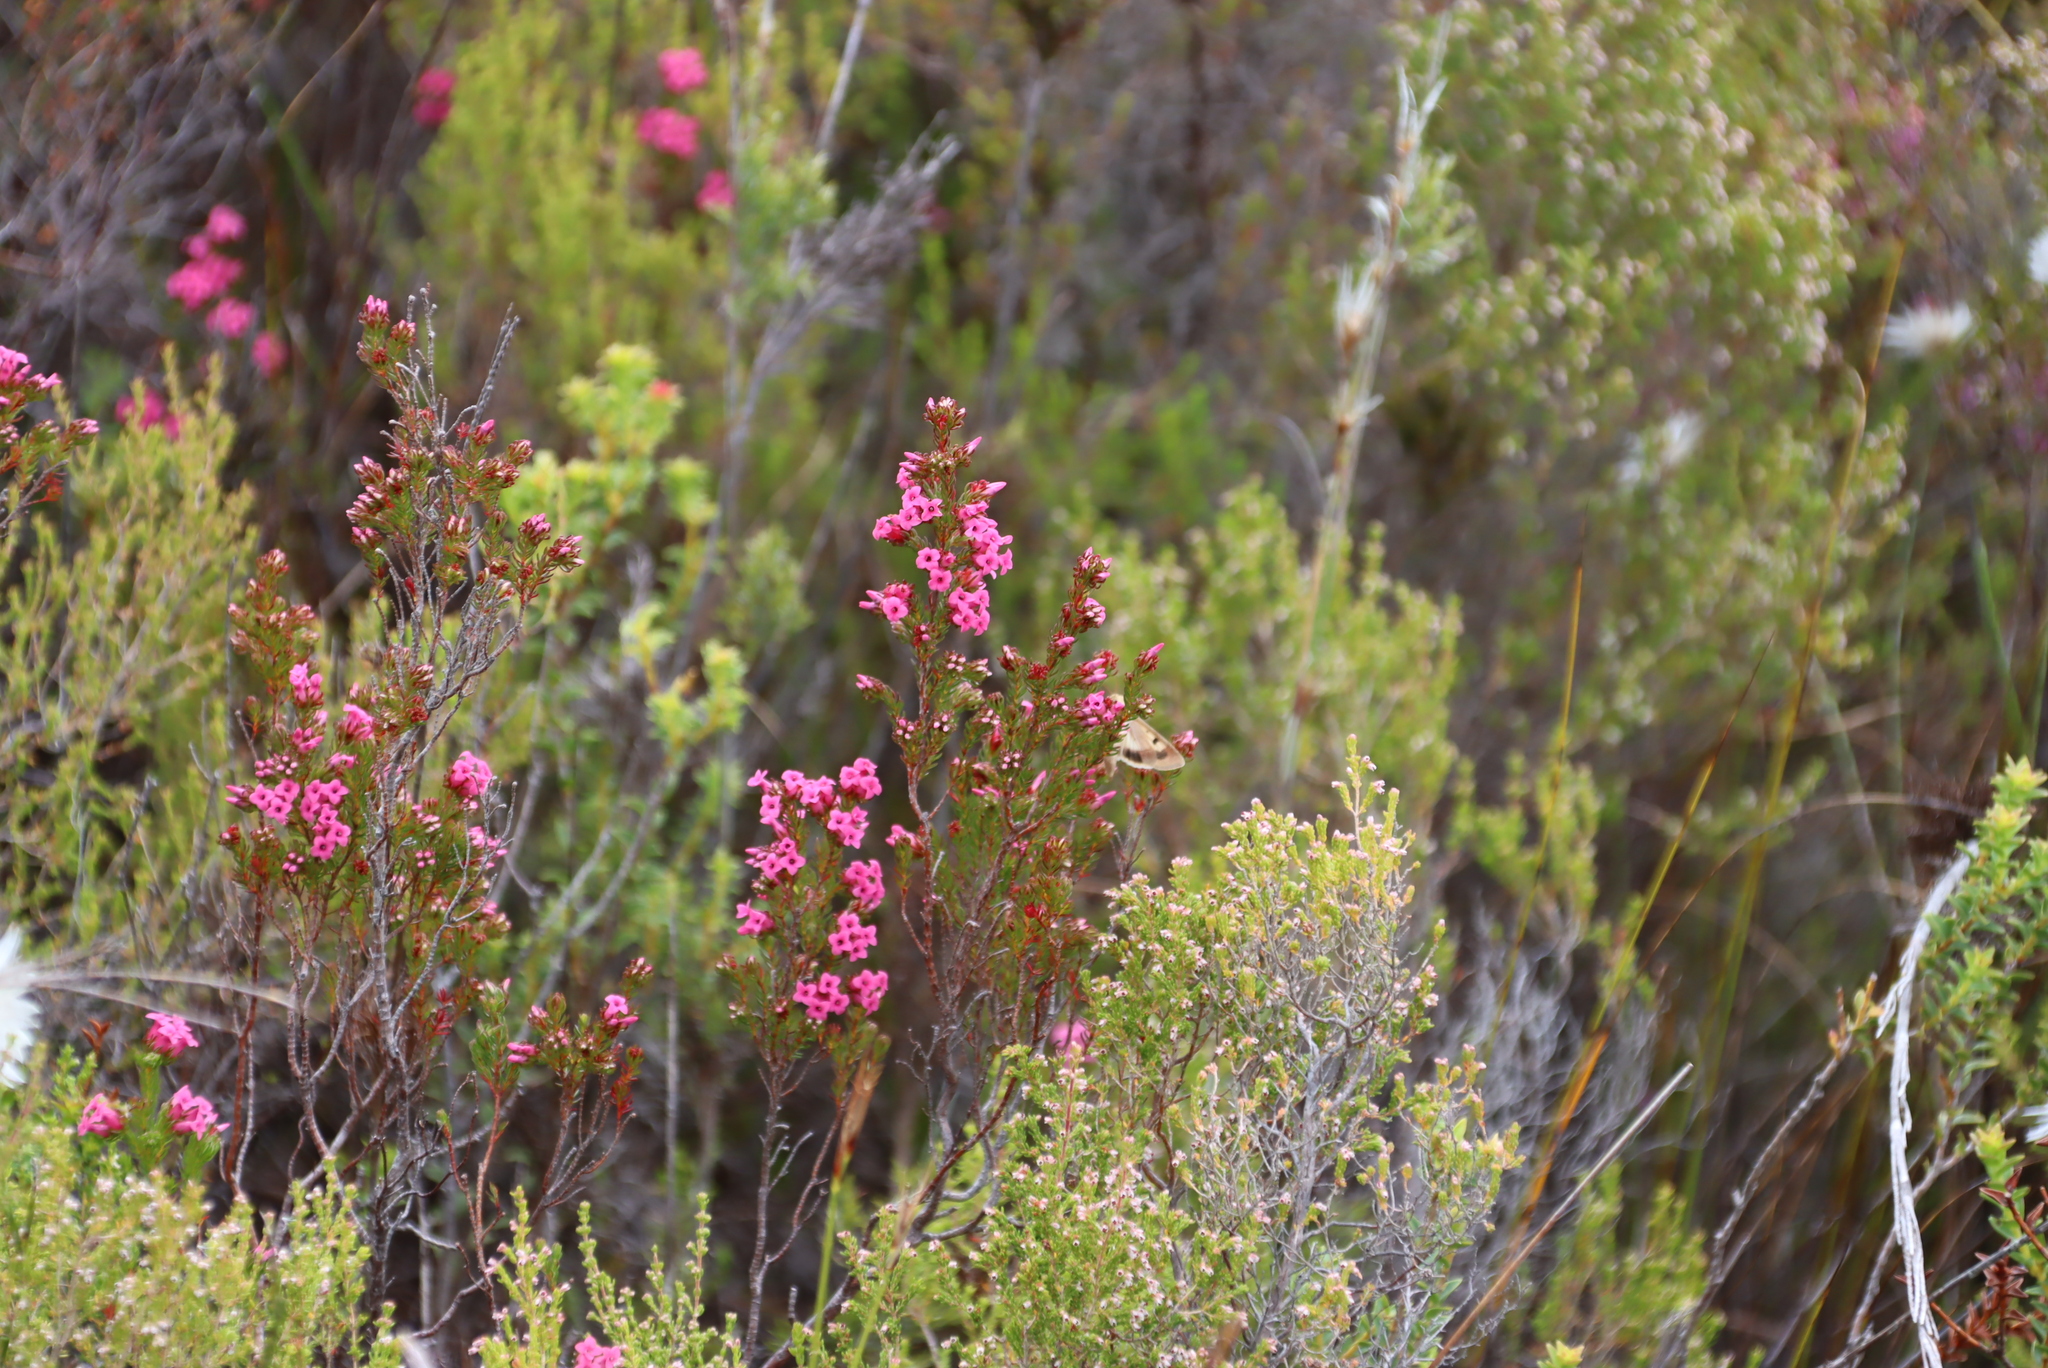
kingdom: Animalia
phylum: Arthropoda
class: Insecta
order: Lepidoptera
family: Noctuidae
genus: Helicoverpa
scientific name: Helicoverpa armigera
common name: Cotton bollworm
